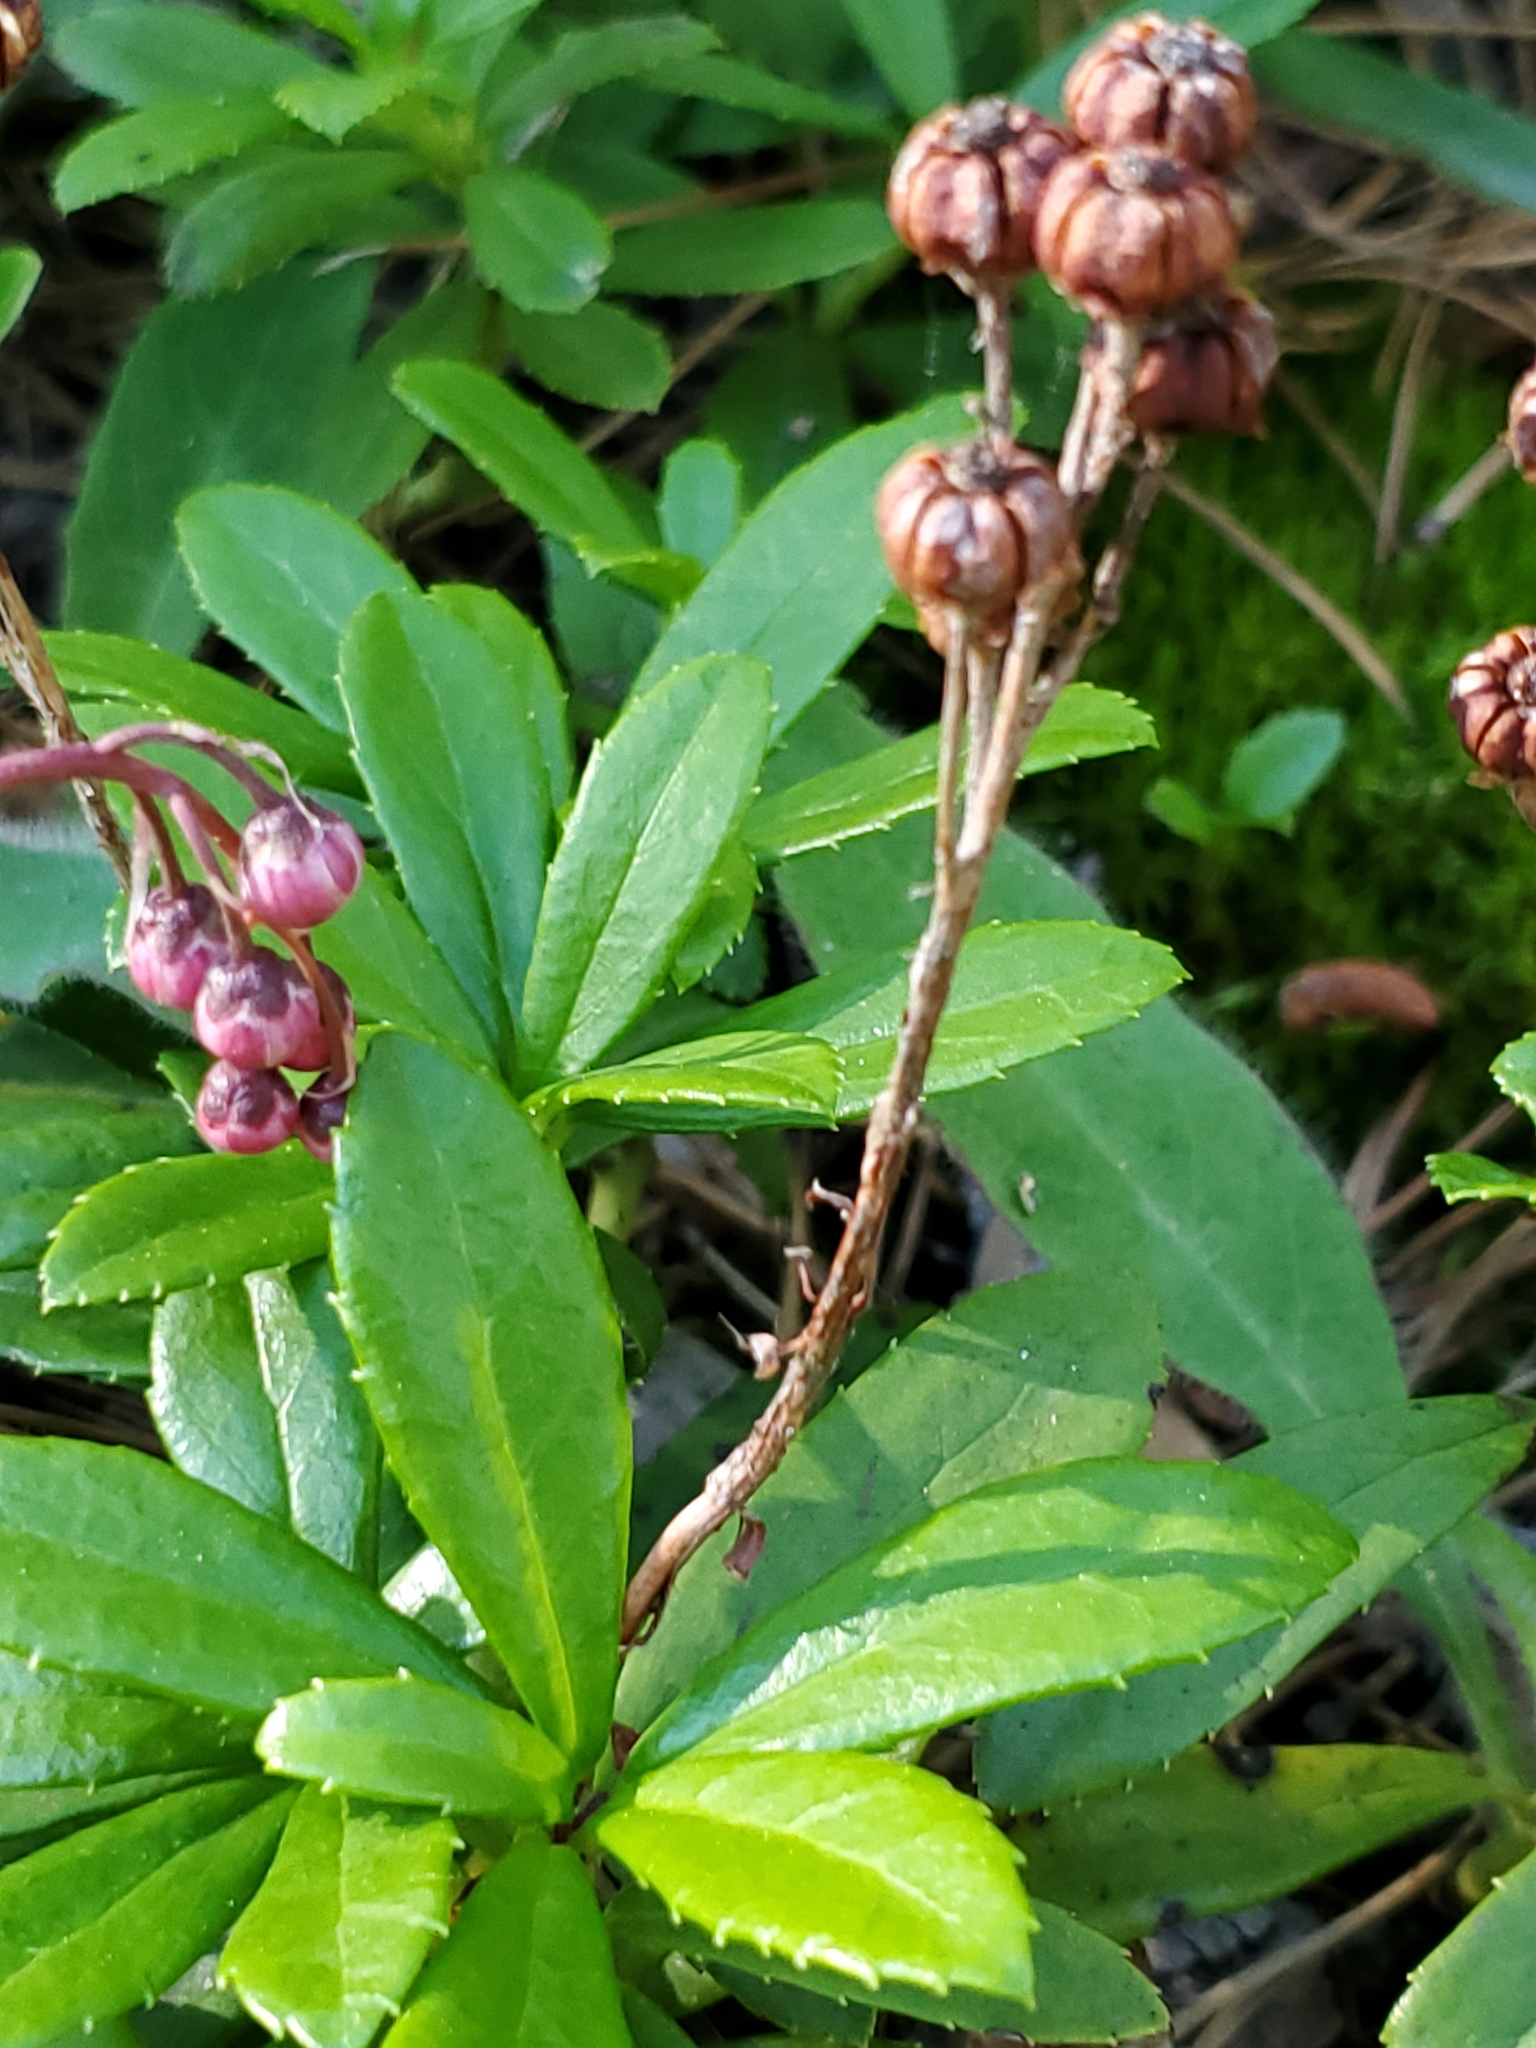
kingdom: Plantae
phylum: Tracheophyta
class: Magnoliopsida
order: Ericales
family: Ericaceae
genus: Chimaphila
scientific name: Chimaphila umbellata
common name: Pipsissewa
